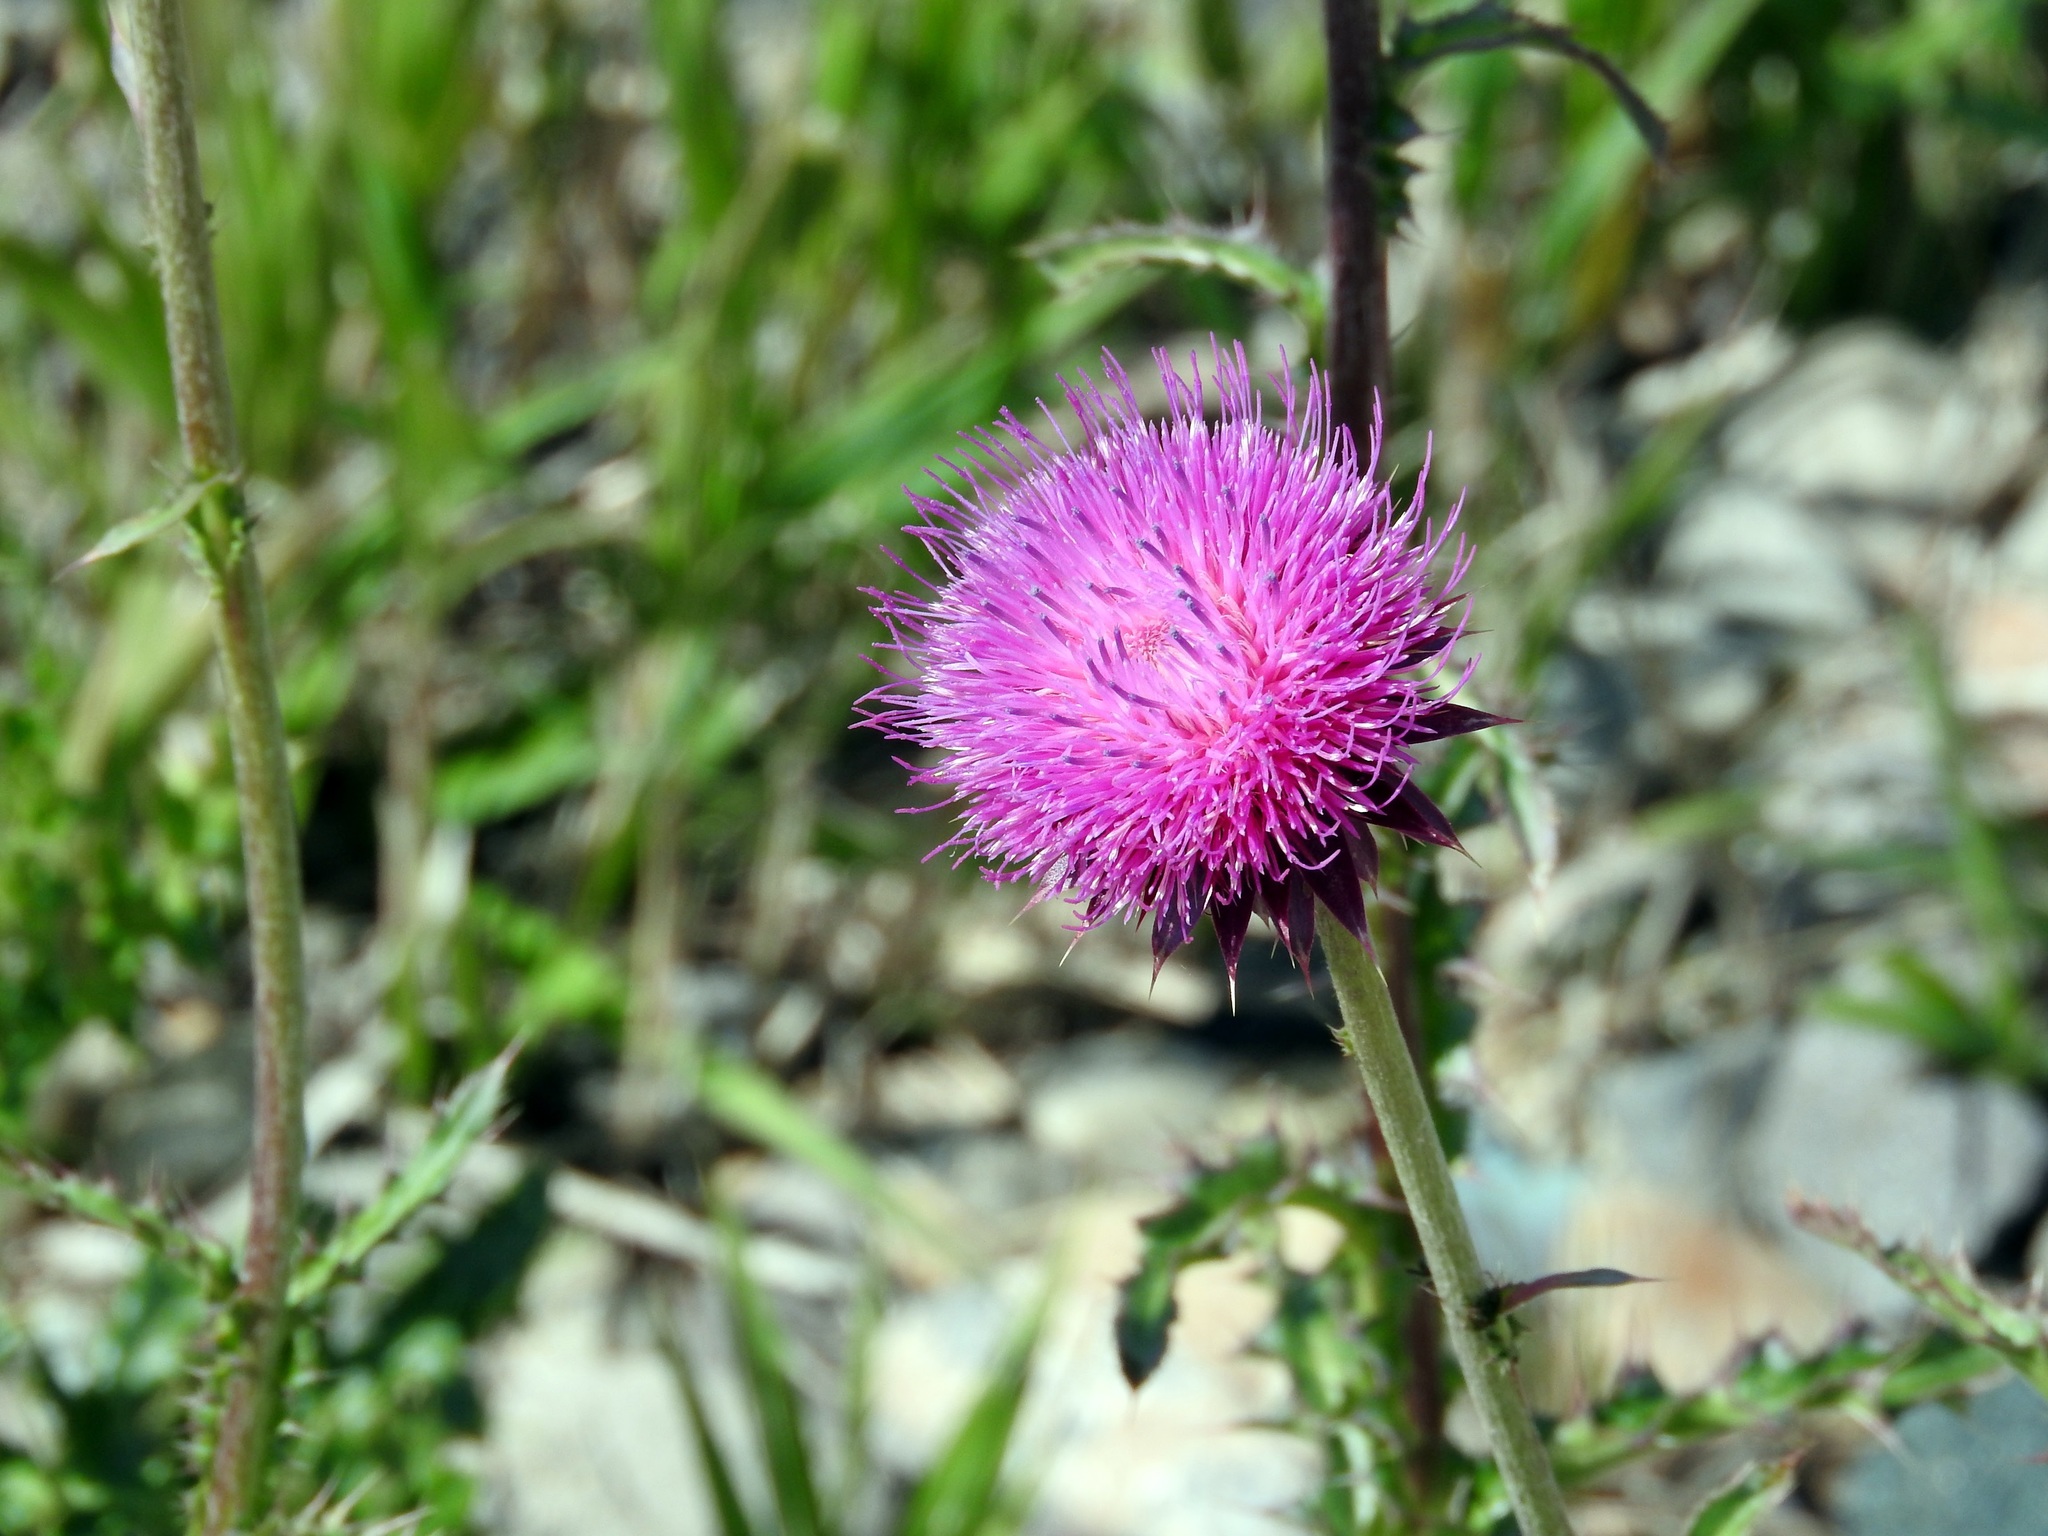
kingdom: Plantae
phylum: Tracheophyta
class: Magnoliopsida
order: Asterales
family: Asteraceae
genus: Carduus
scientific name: Carduus nutans
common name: Musk thistle
